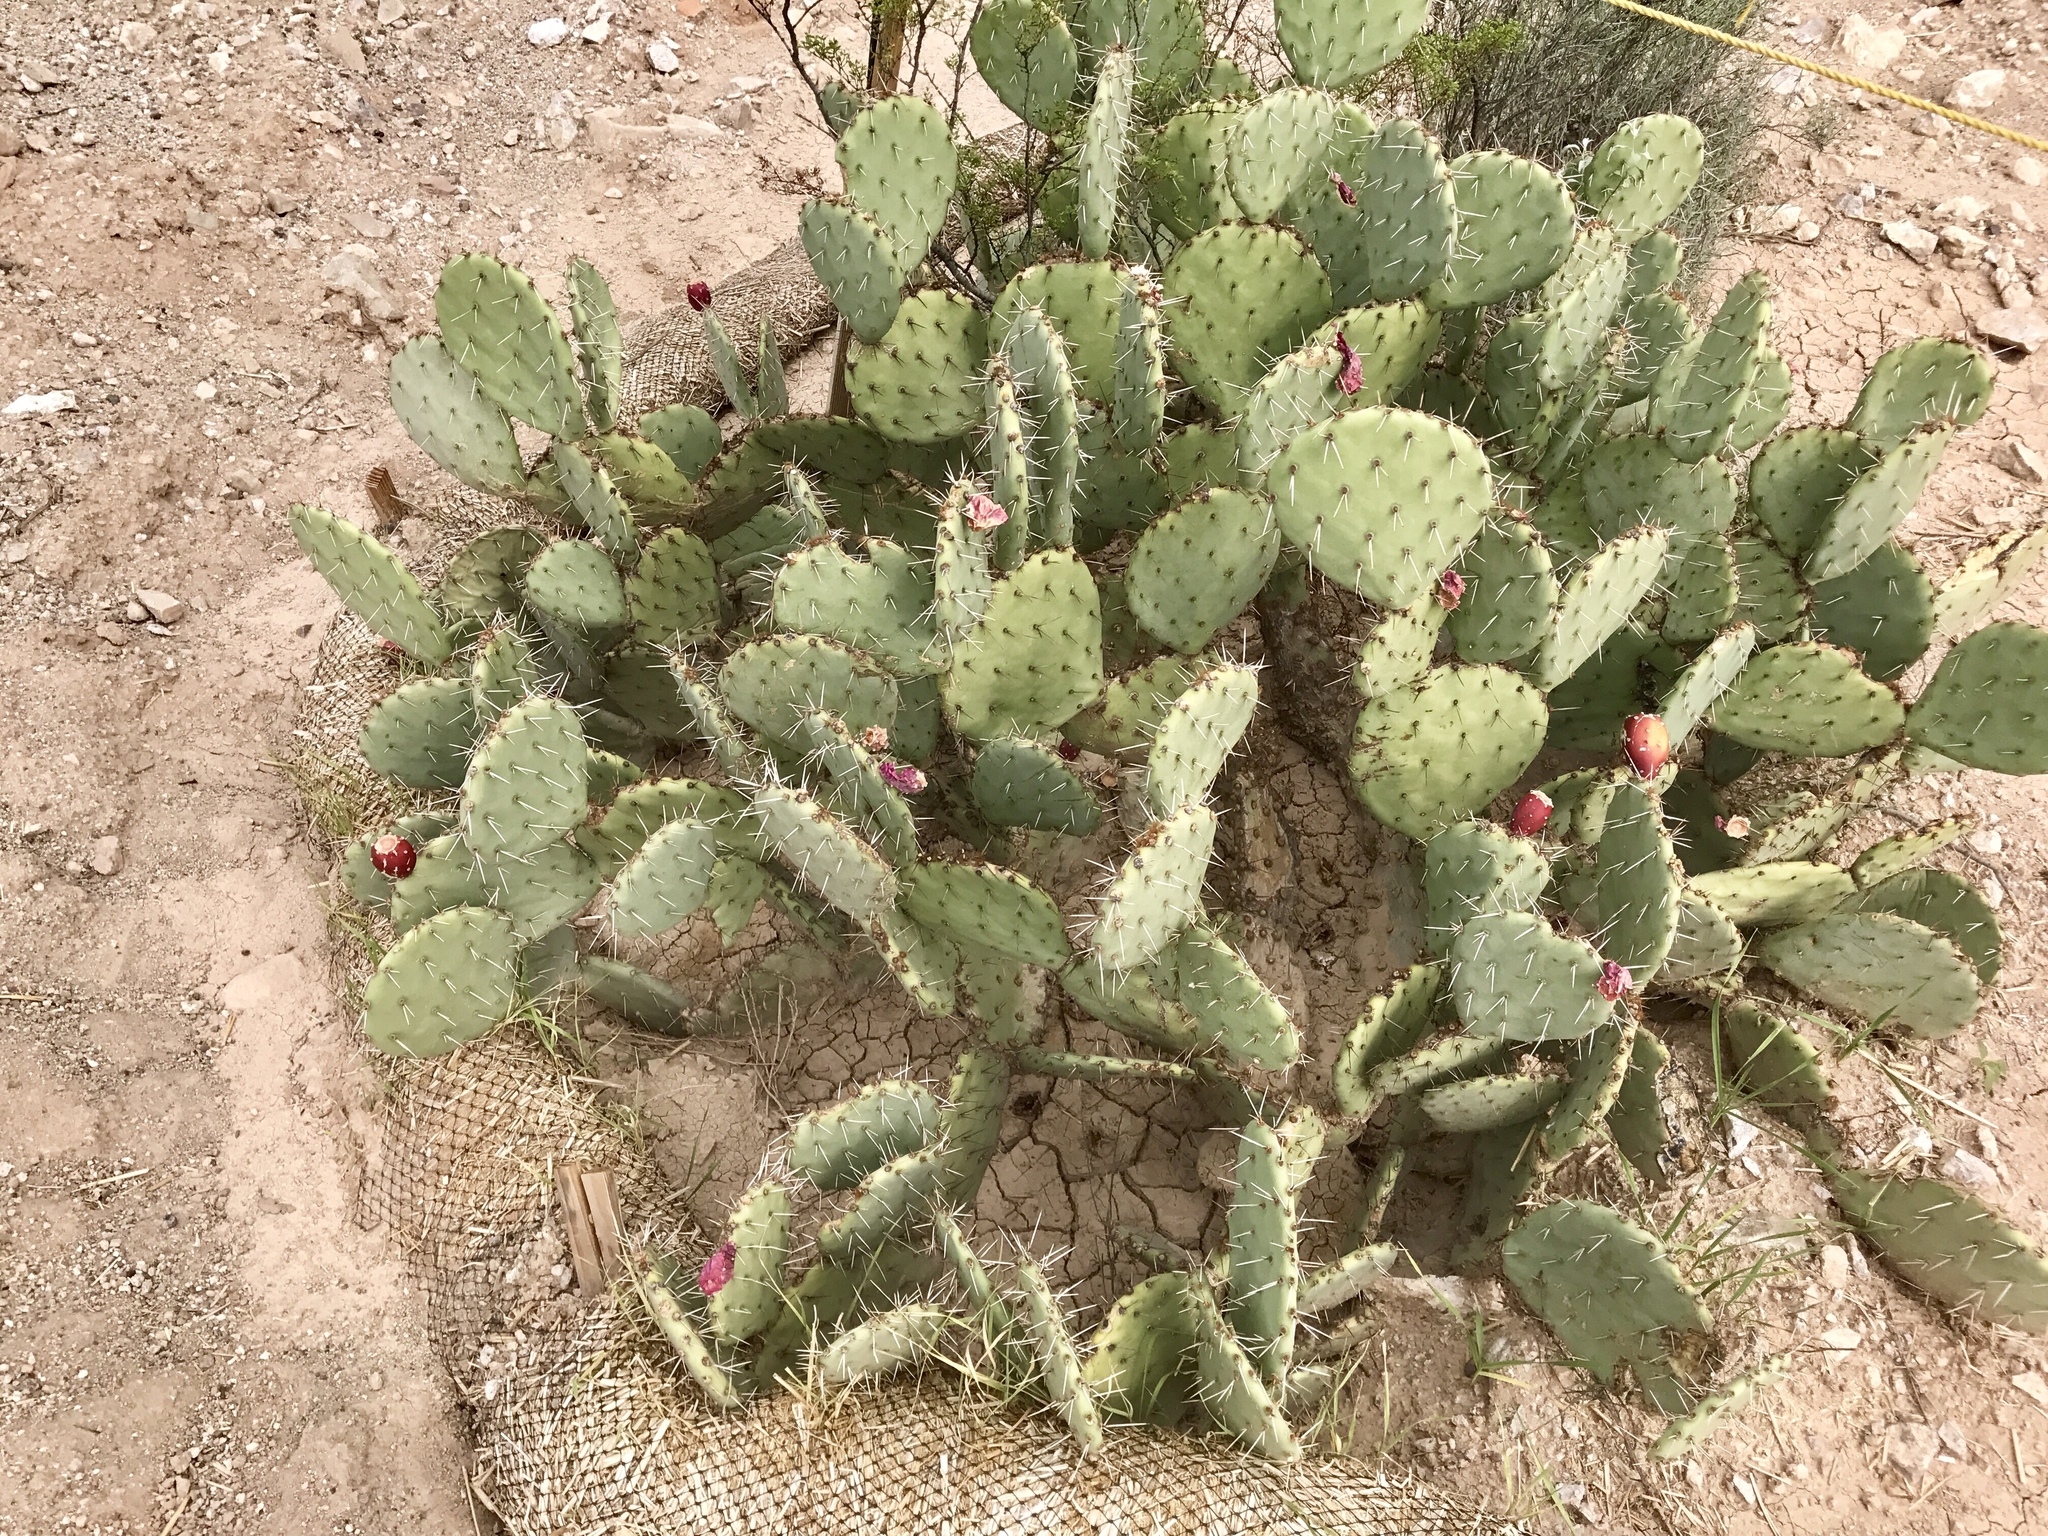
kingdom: Plantae
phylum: Tracheophyta
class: Magnoliopsida
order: Caryophyllales
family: Cactaceae
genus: Opuntia
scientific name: Opuntia engelmannii
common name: Cactus-apple
